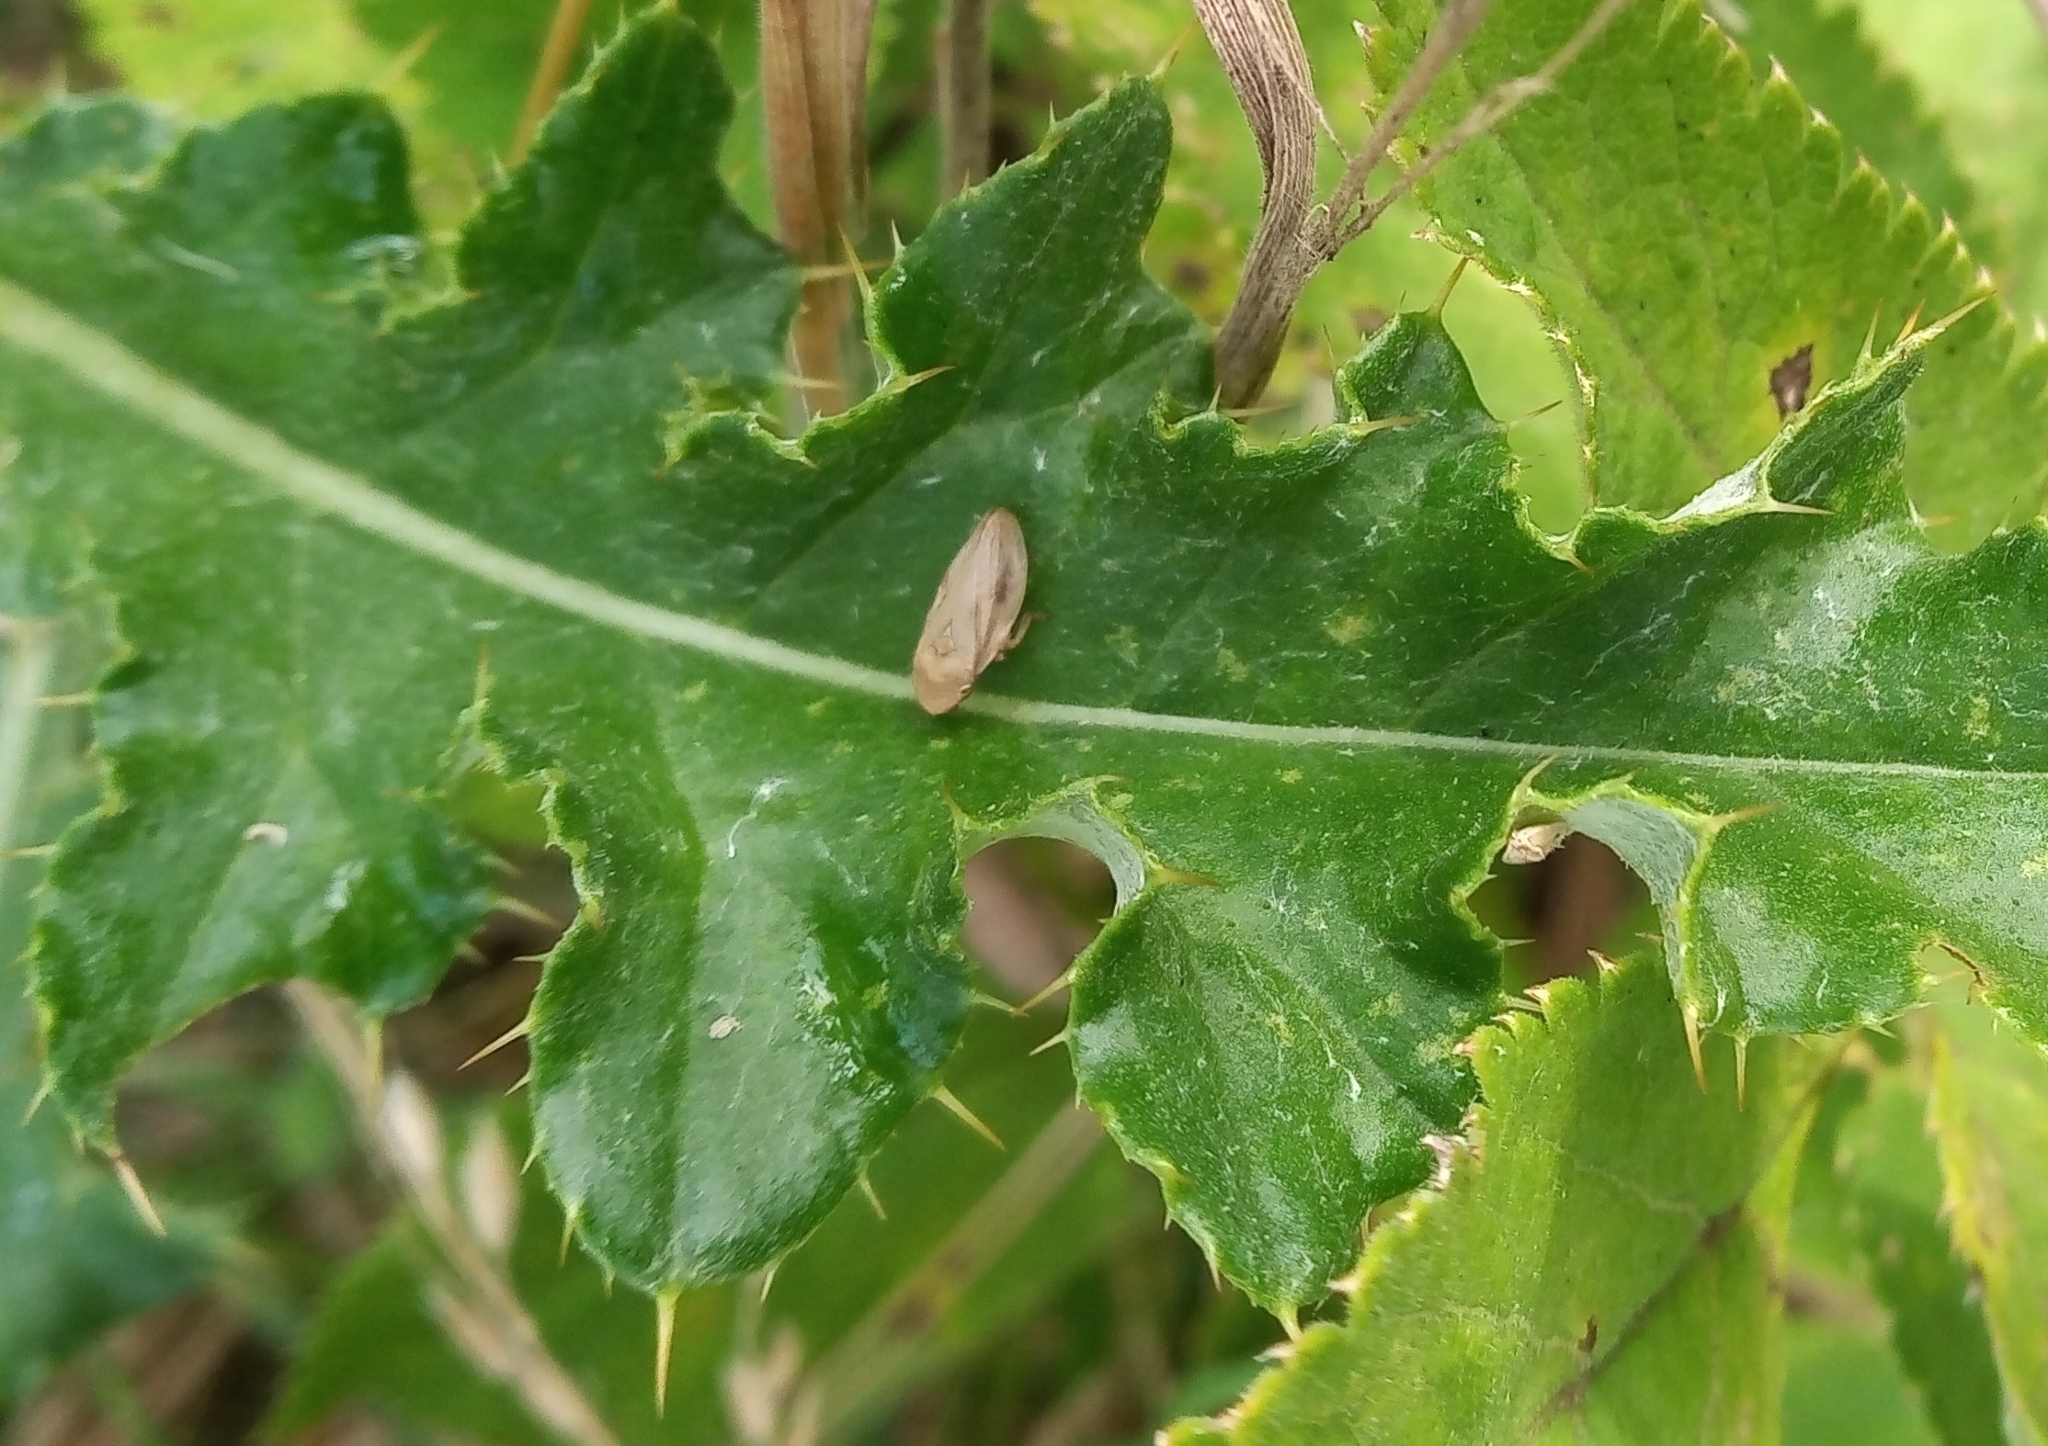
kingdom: Animalia
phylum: Arthropoda
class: Insecta
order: Hemiptera
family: Aphrophoridae
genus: Philaenus
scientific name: Philaenus spumarius
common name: Meadow spittlebug
